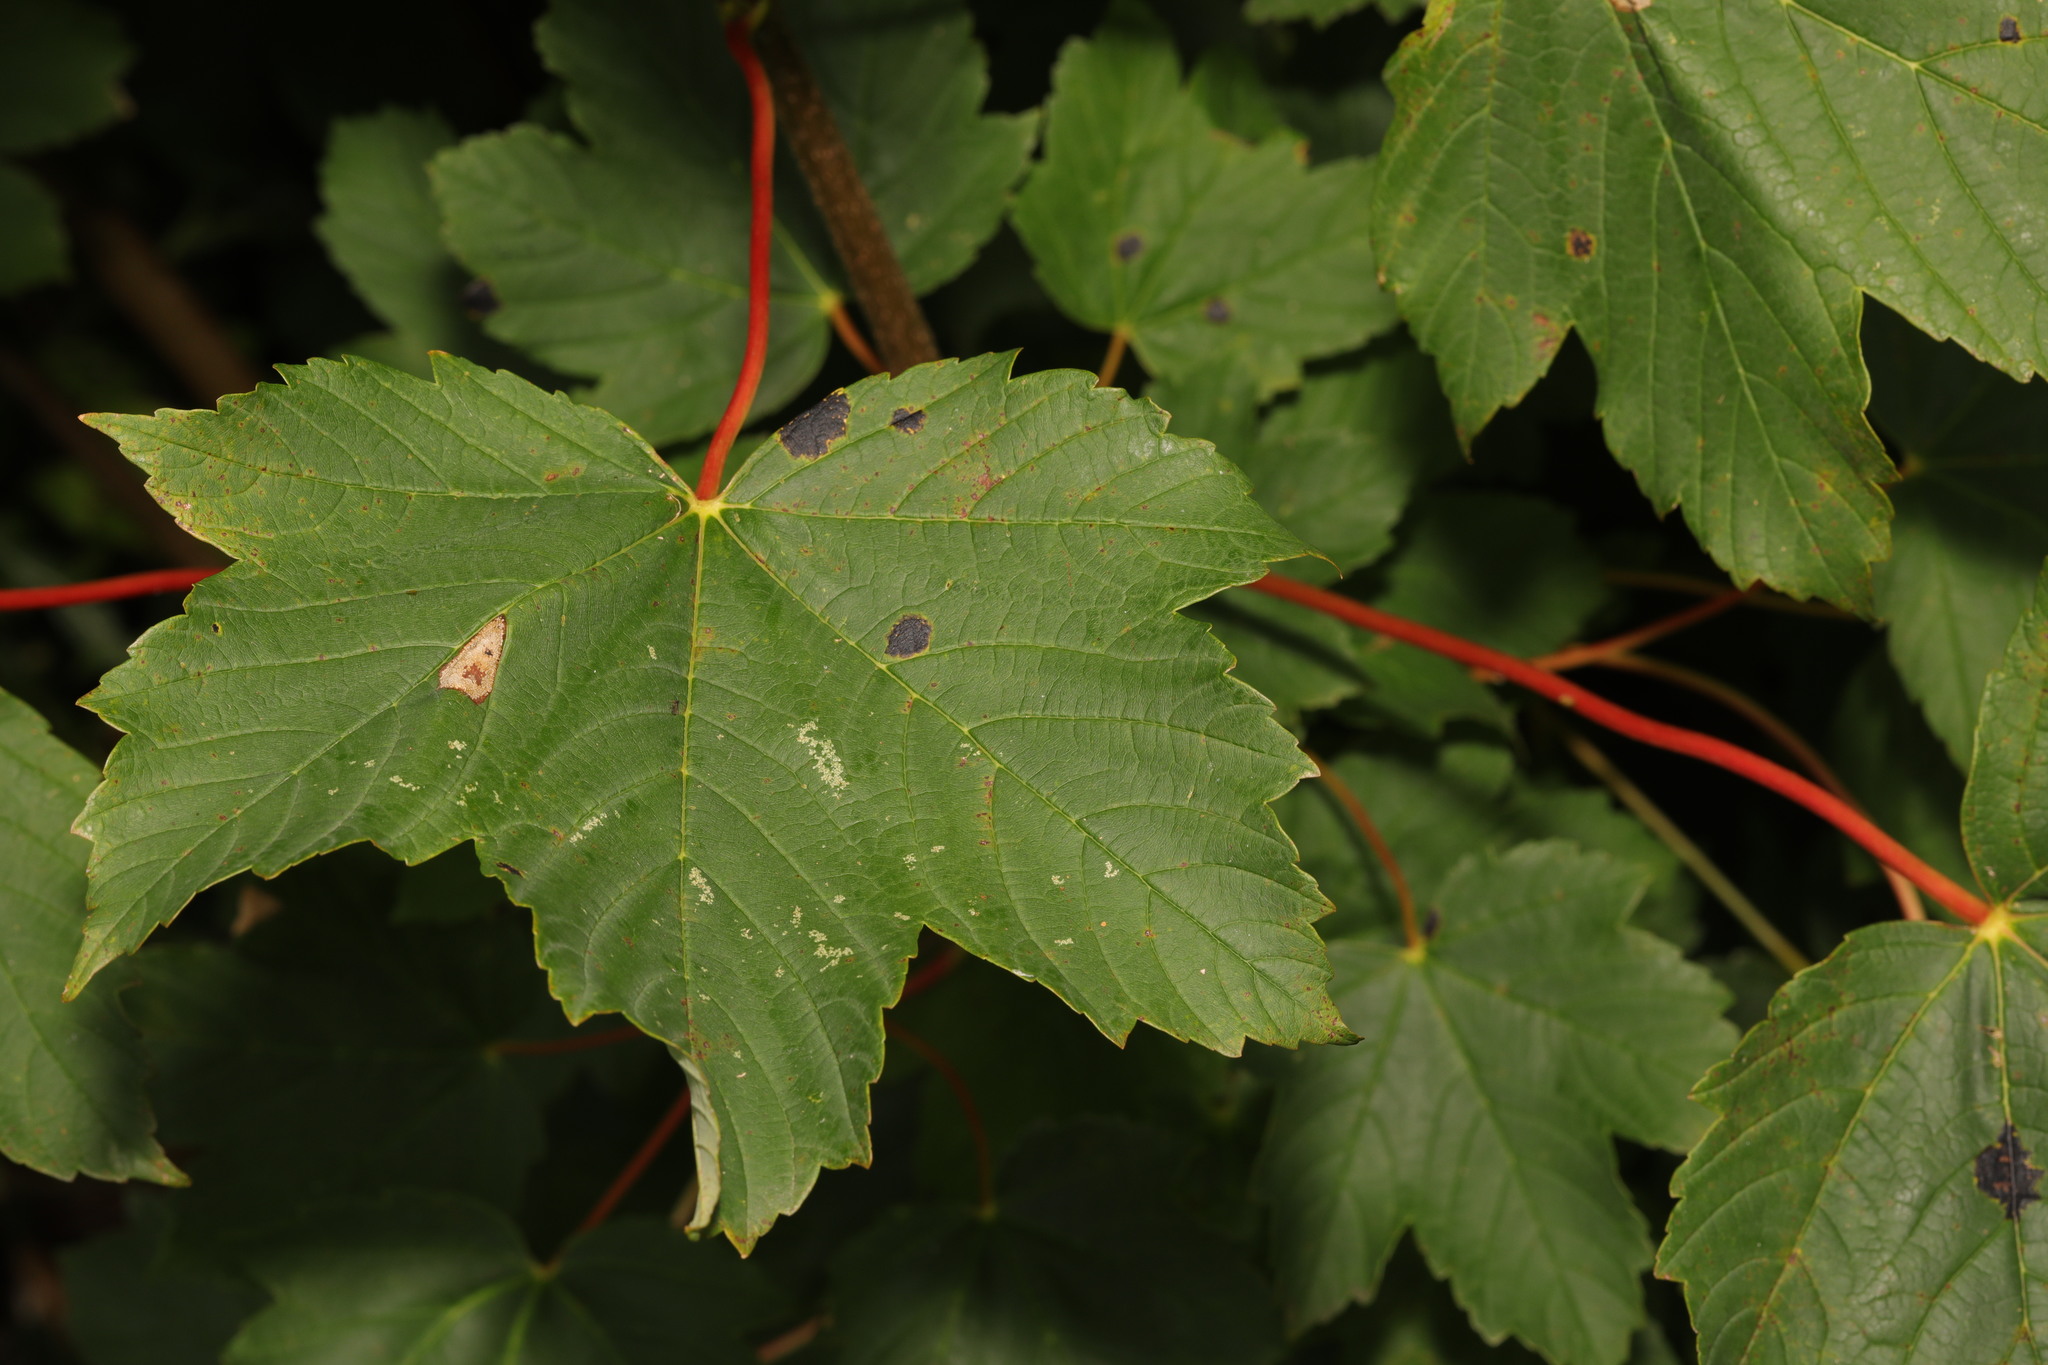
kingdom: Plantae
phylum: Tracheophyta
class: Magnoliopsida
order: Sapindales
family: Sapindaceae
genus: Acer
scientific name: Acer pseudoplatanus
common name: Sycamore
